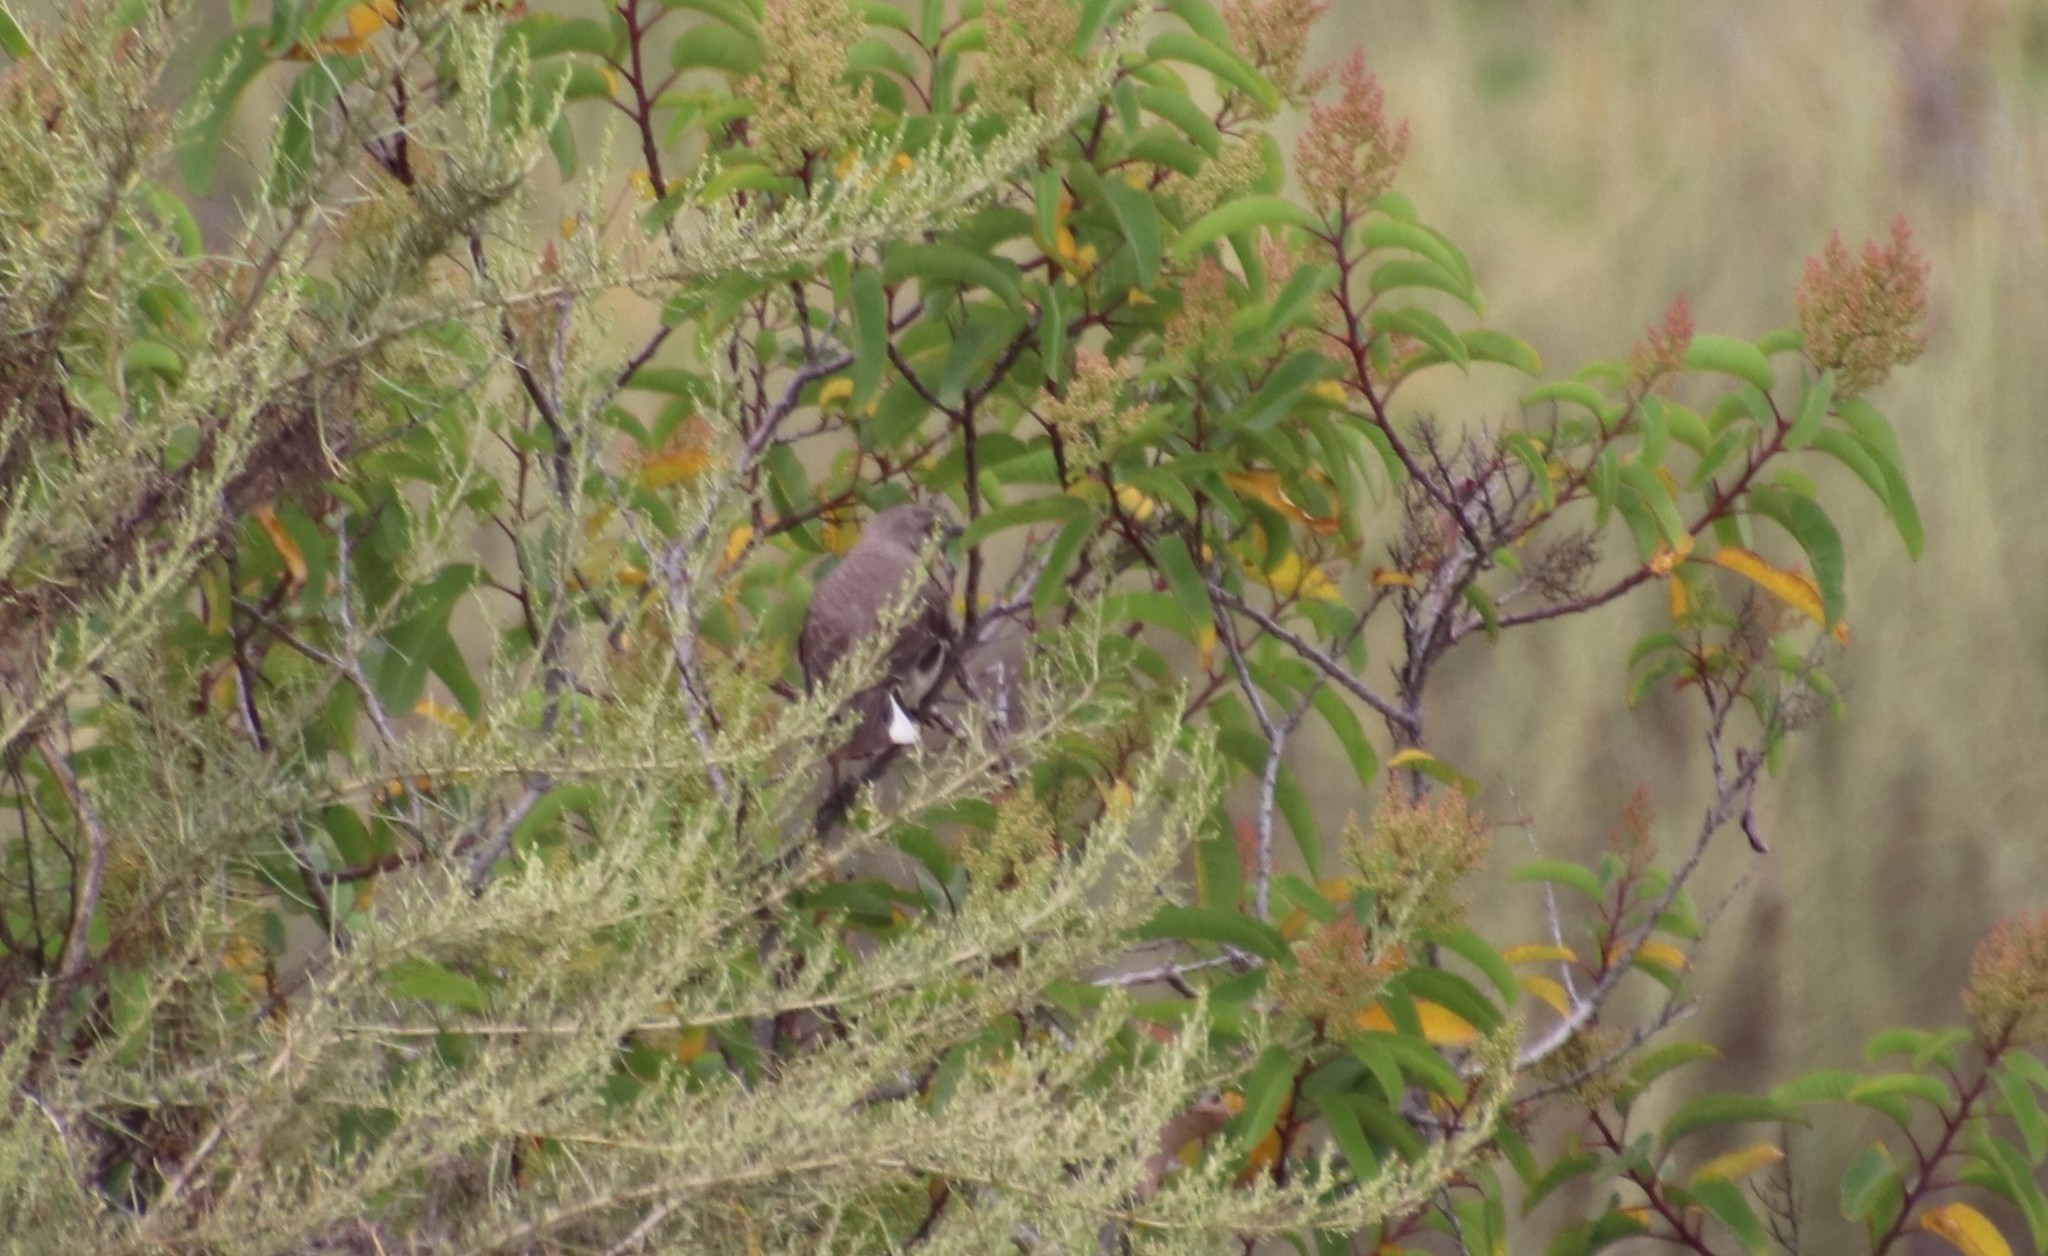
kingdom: Animalia
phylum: Chordata
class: Aves
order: Passeriformes
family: Mimidae
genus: Mimus
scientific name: Mimus polyglottos
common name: Northern mockingbird
